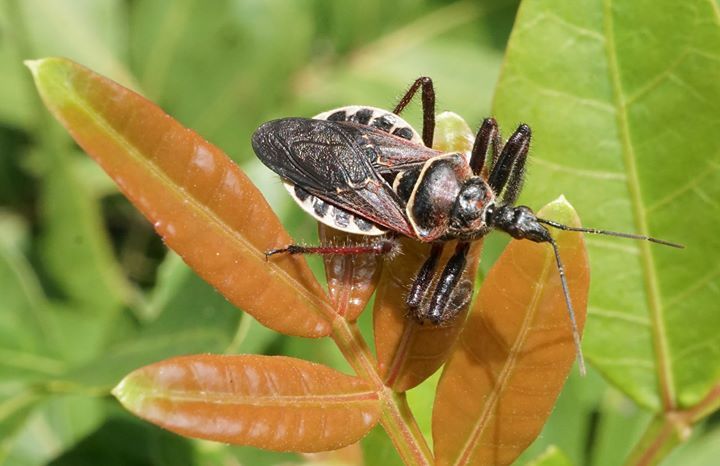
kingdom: Animalia
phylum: Arthropoda
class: Insecta
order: Hemiptera
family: Reduviidae
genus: Apiomerus
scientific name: Apiomerus floridensis
